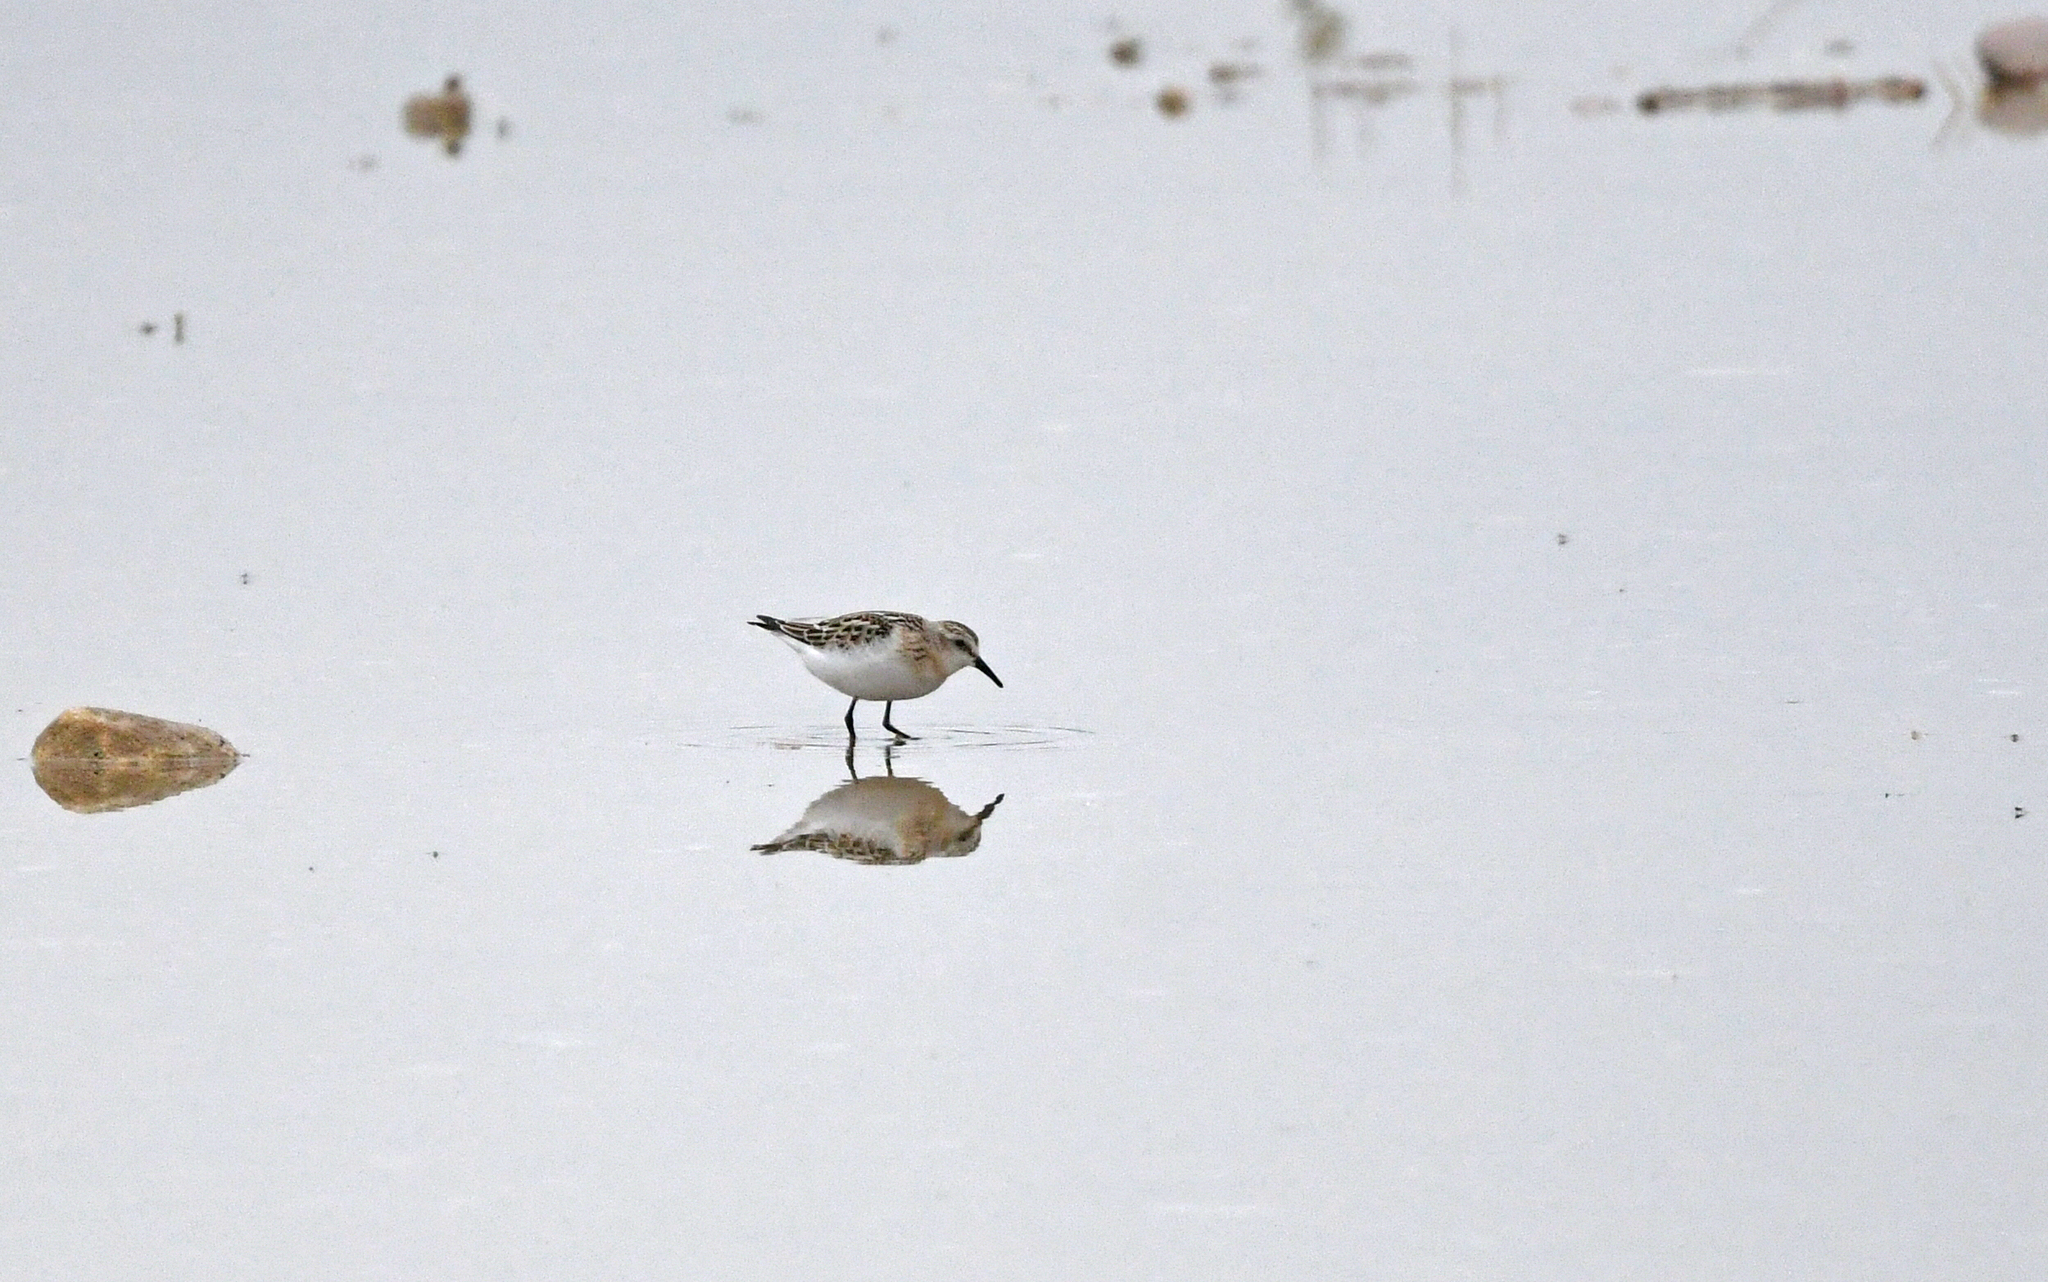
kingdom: Animalia
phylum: Chordata
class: Aves
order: Charadriiformes
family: Scolopacidae
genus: Calidris
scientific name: Calidris minuta
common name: Little stint
